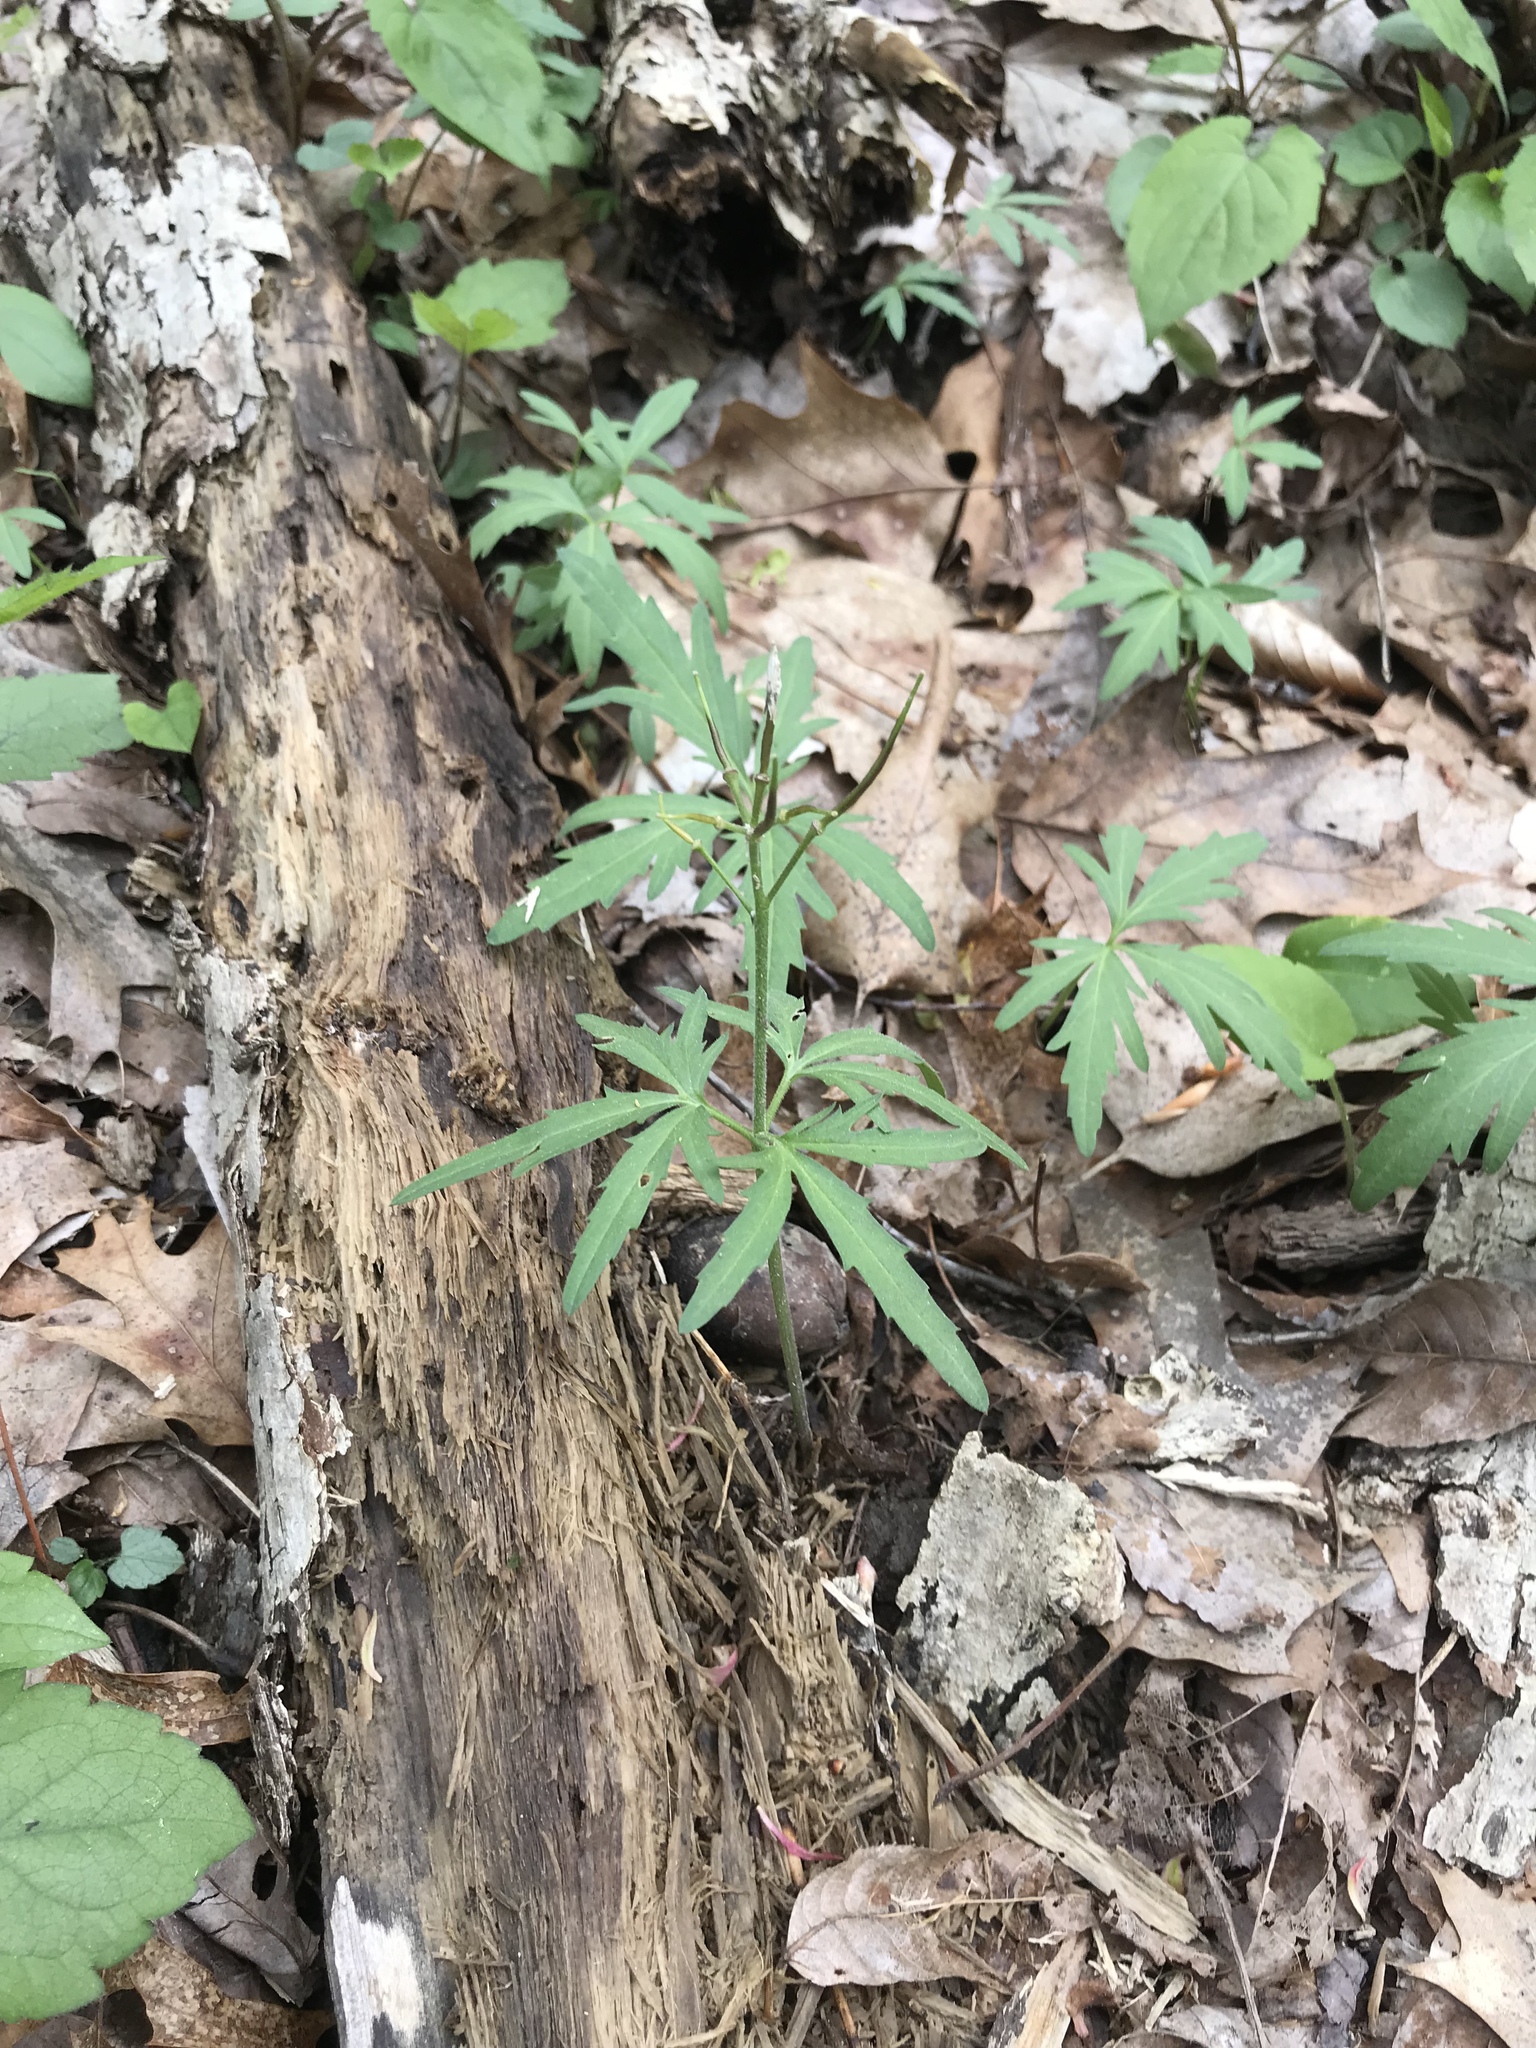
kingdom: Plantae
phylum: Tracheophyta
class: Magnoliopsida
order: Brassicales
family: Brassicaceae
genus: Cardamine
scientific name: Cardamine concatenata
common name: Cut-leaf toothcup
